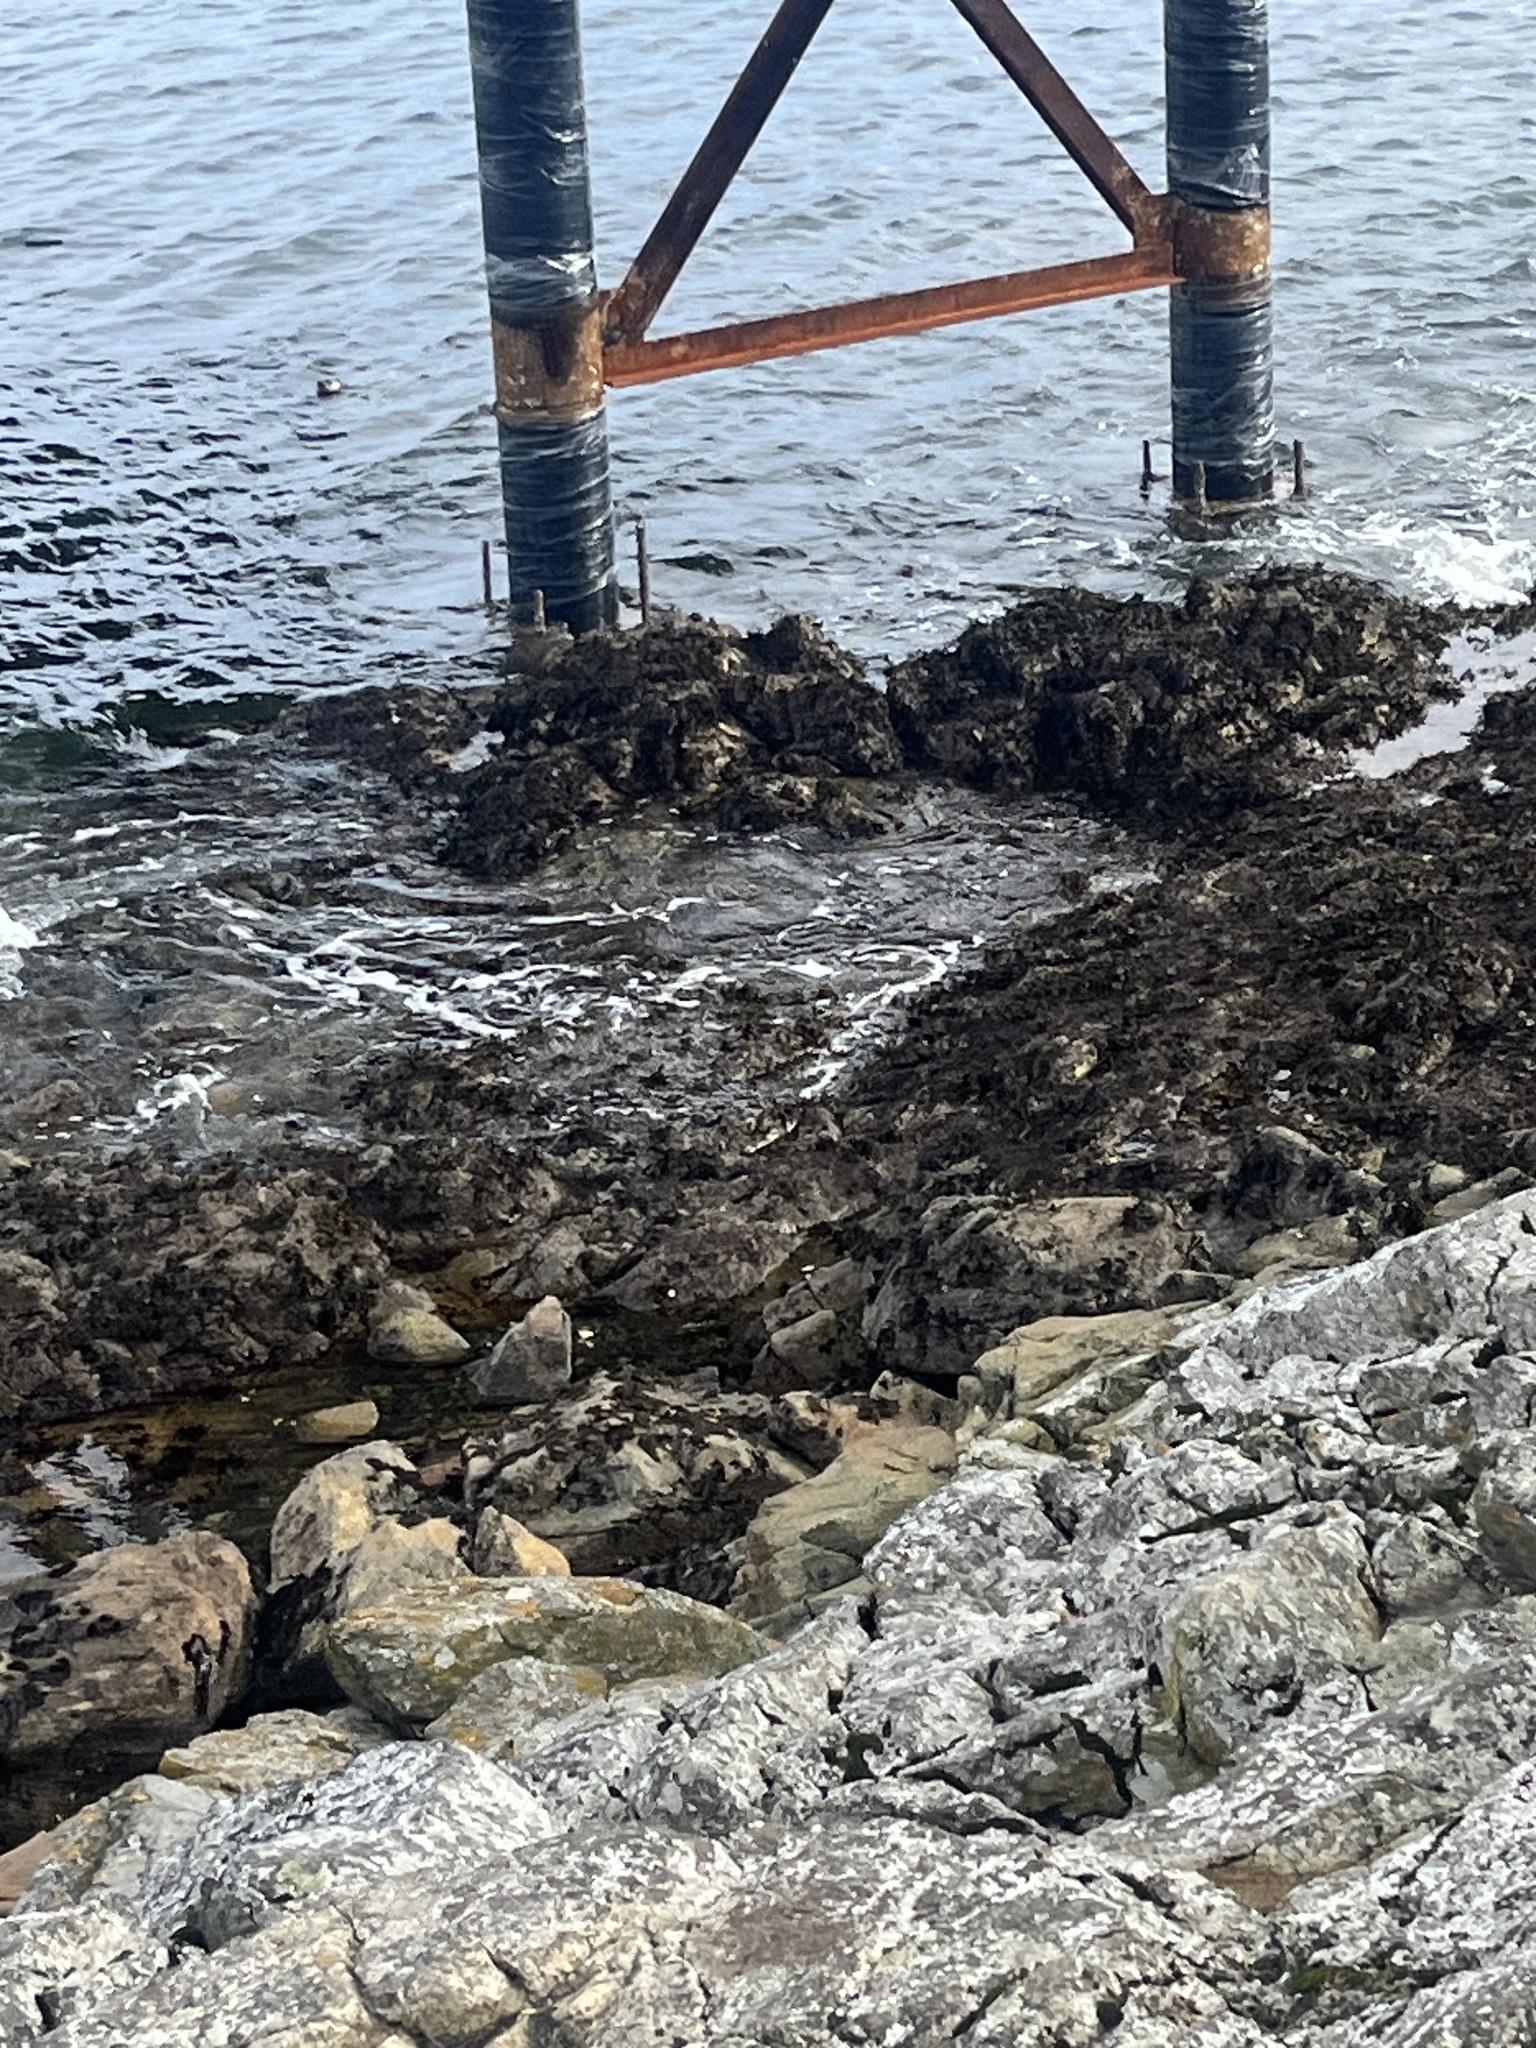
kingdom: Animalia
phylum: Chordata
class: Mammalia
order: Carnivora
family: Mustelidae
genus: Lontra
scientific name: Lontra canadensis
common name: North american river otter
